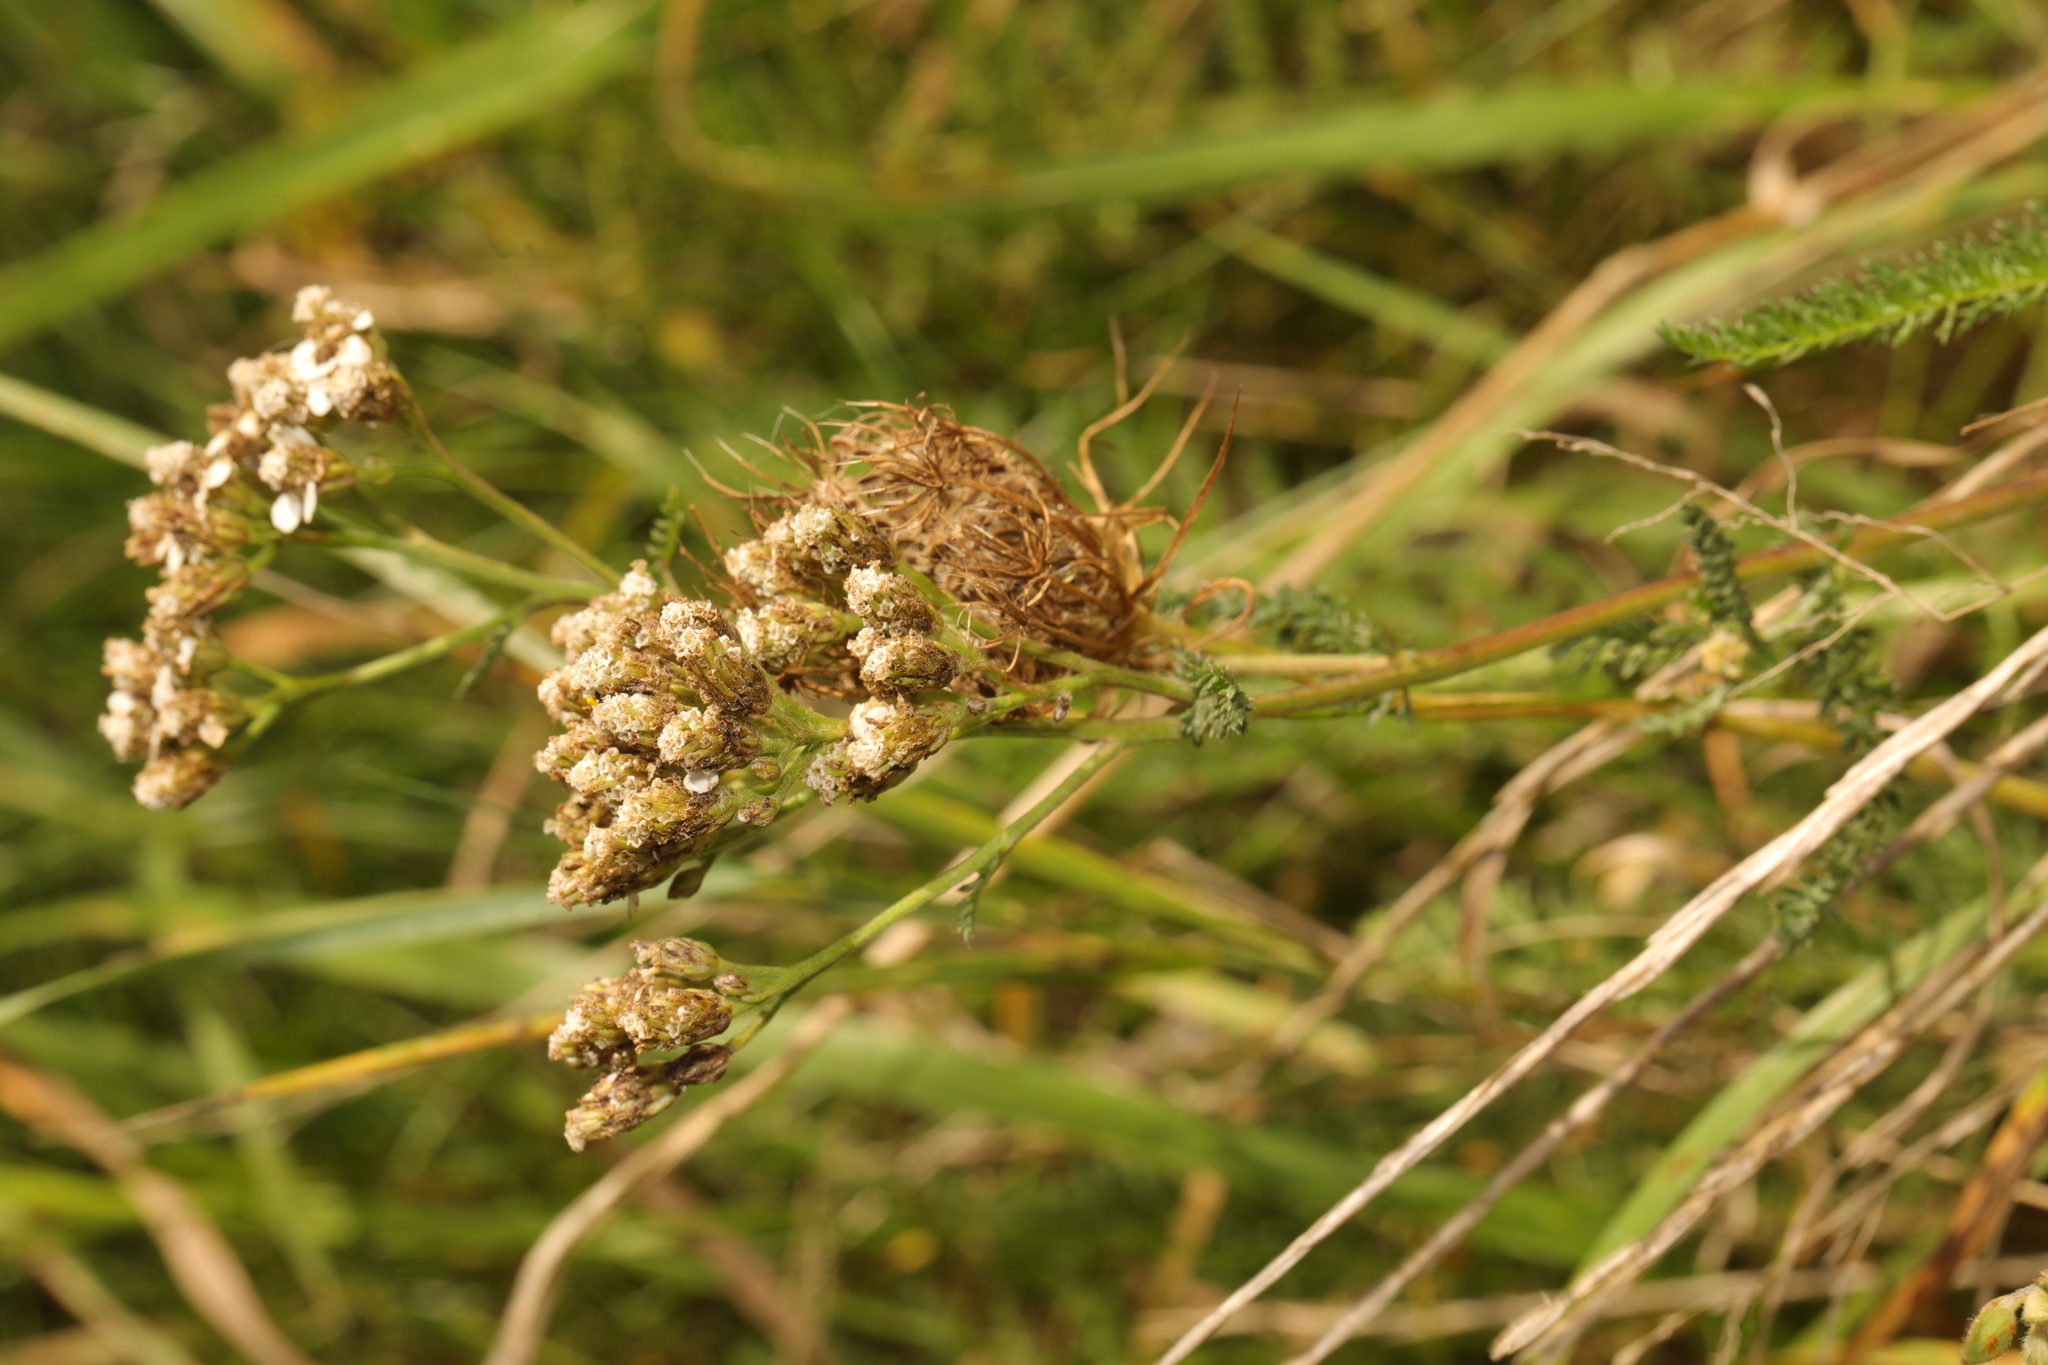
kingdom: Plantae
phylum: Tracheophyta
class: Magnoliopsida
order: Asterales
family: Asteraceae
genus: Achillea
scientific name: Achillea millefolium
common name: Yarrow
